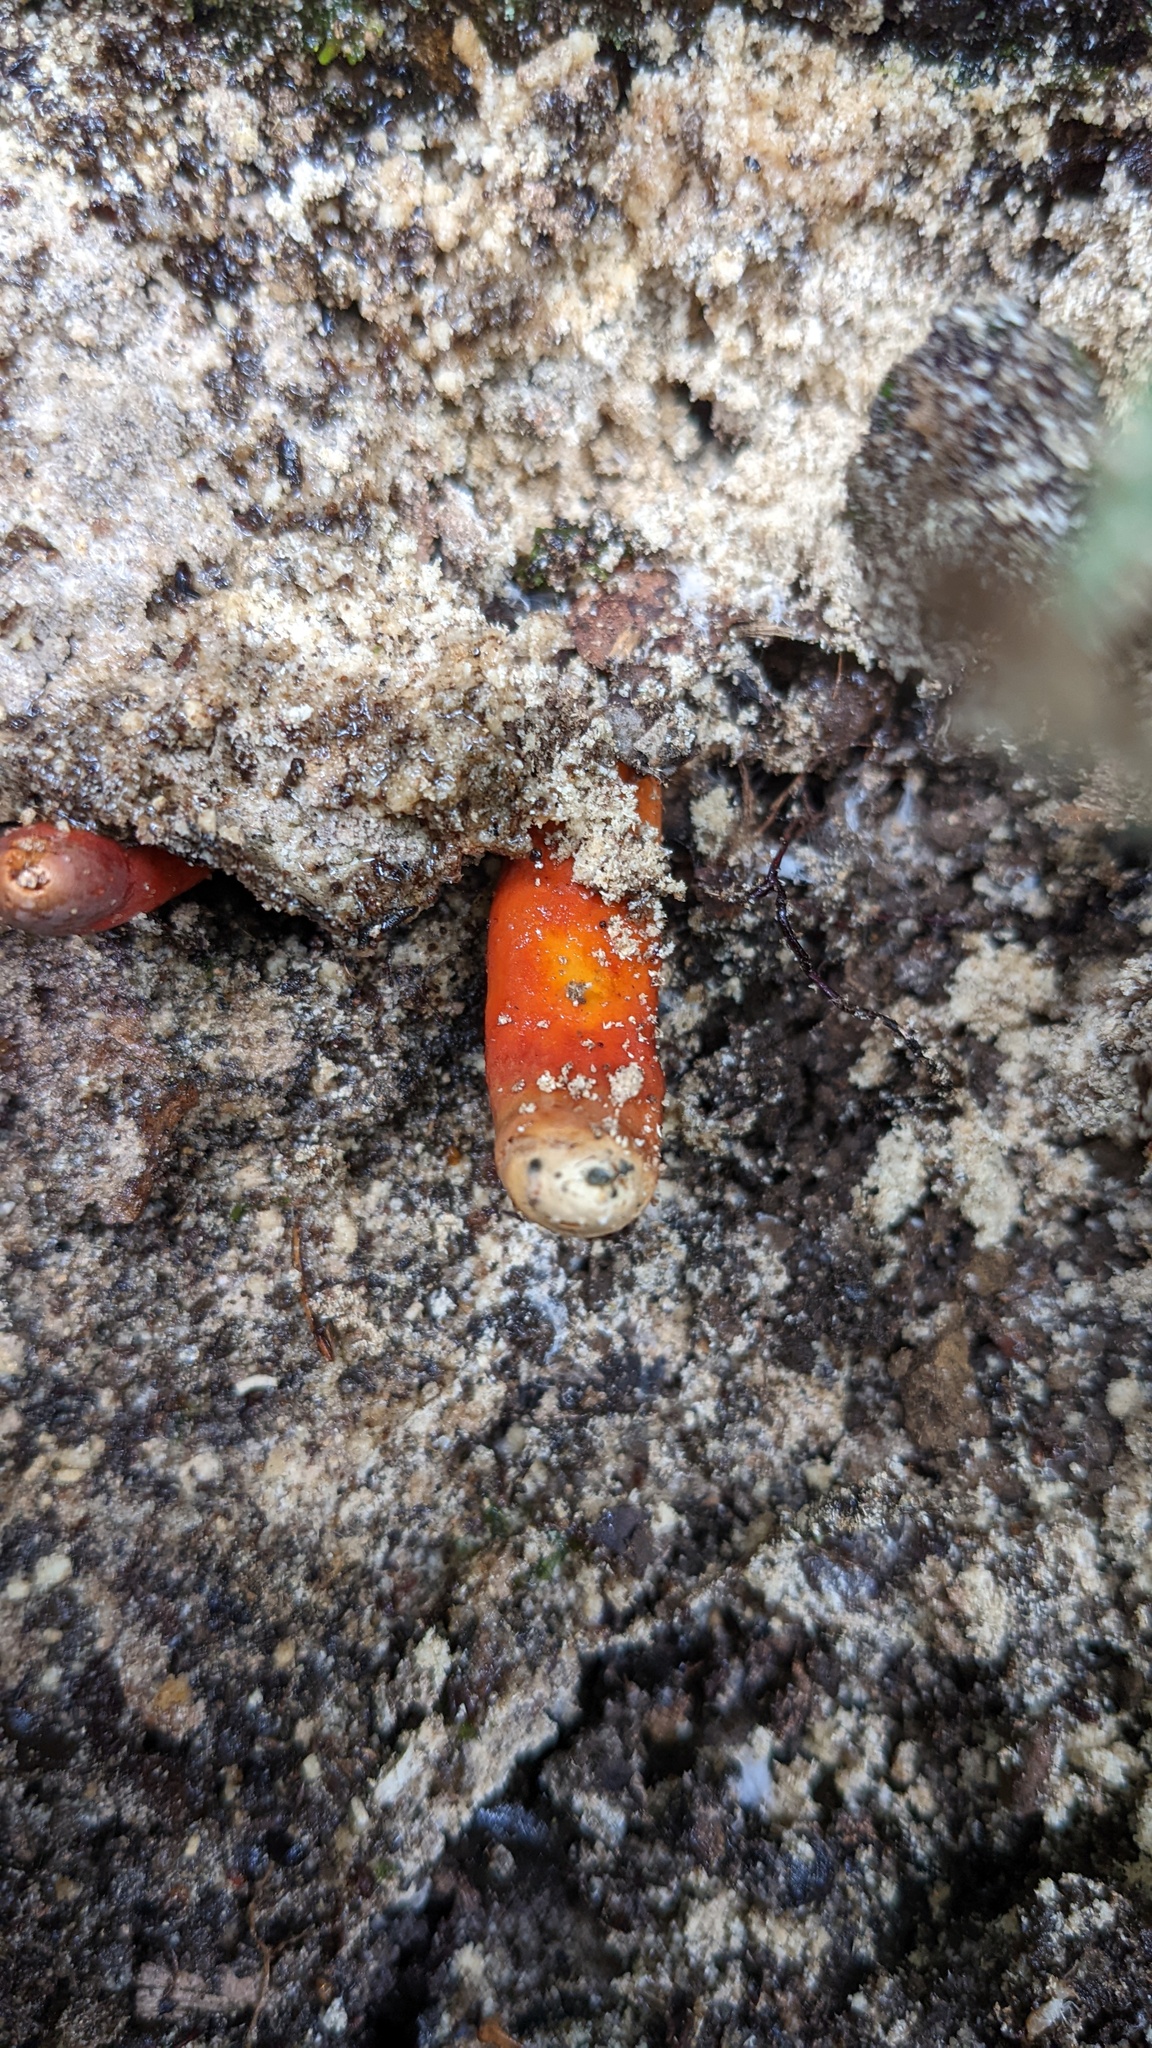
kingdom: Fungi
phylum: Ascomycota
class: Sordariomycetes
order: Hypocreales
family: Hypocreaceae
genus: Trichoderma
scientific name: Trichoderma cornu-damae
